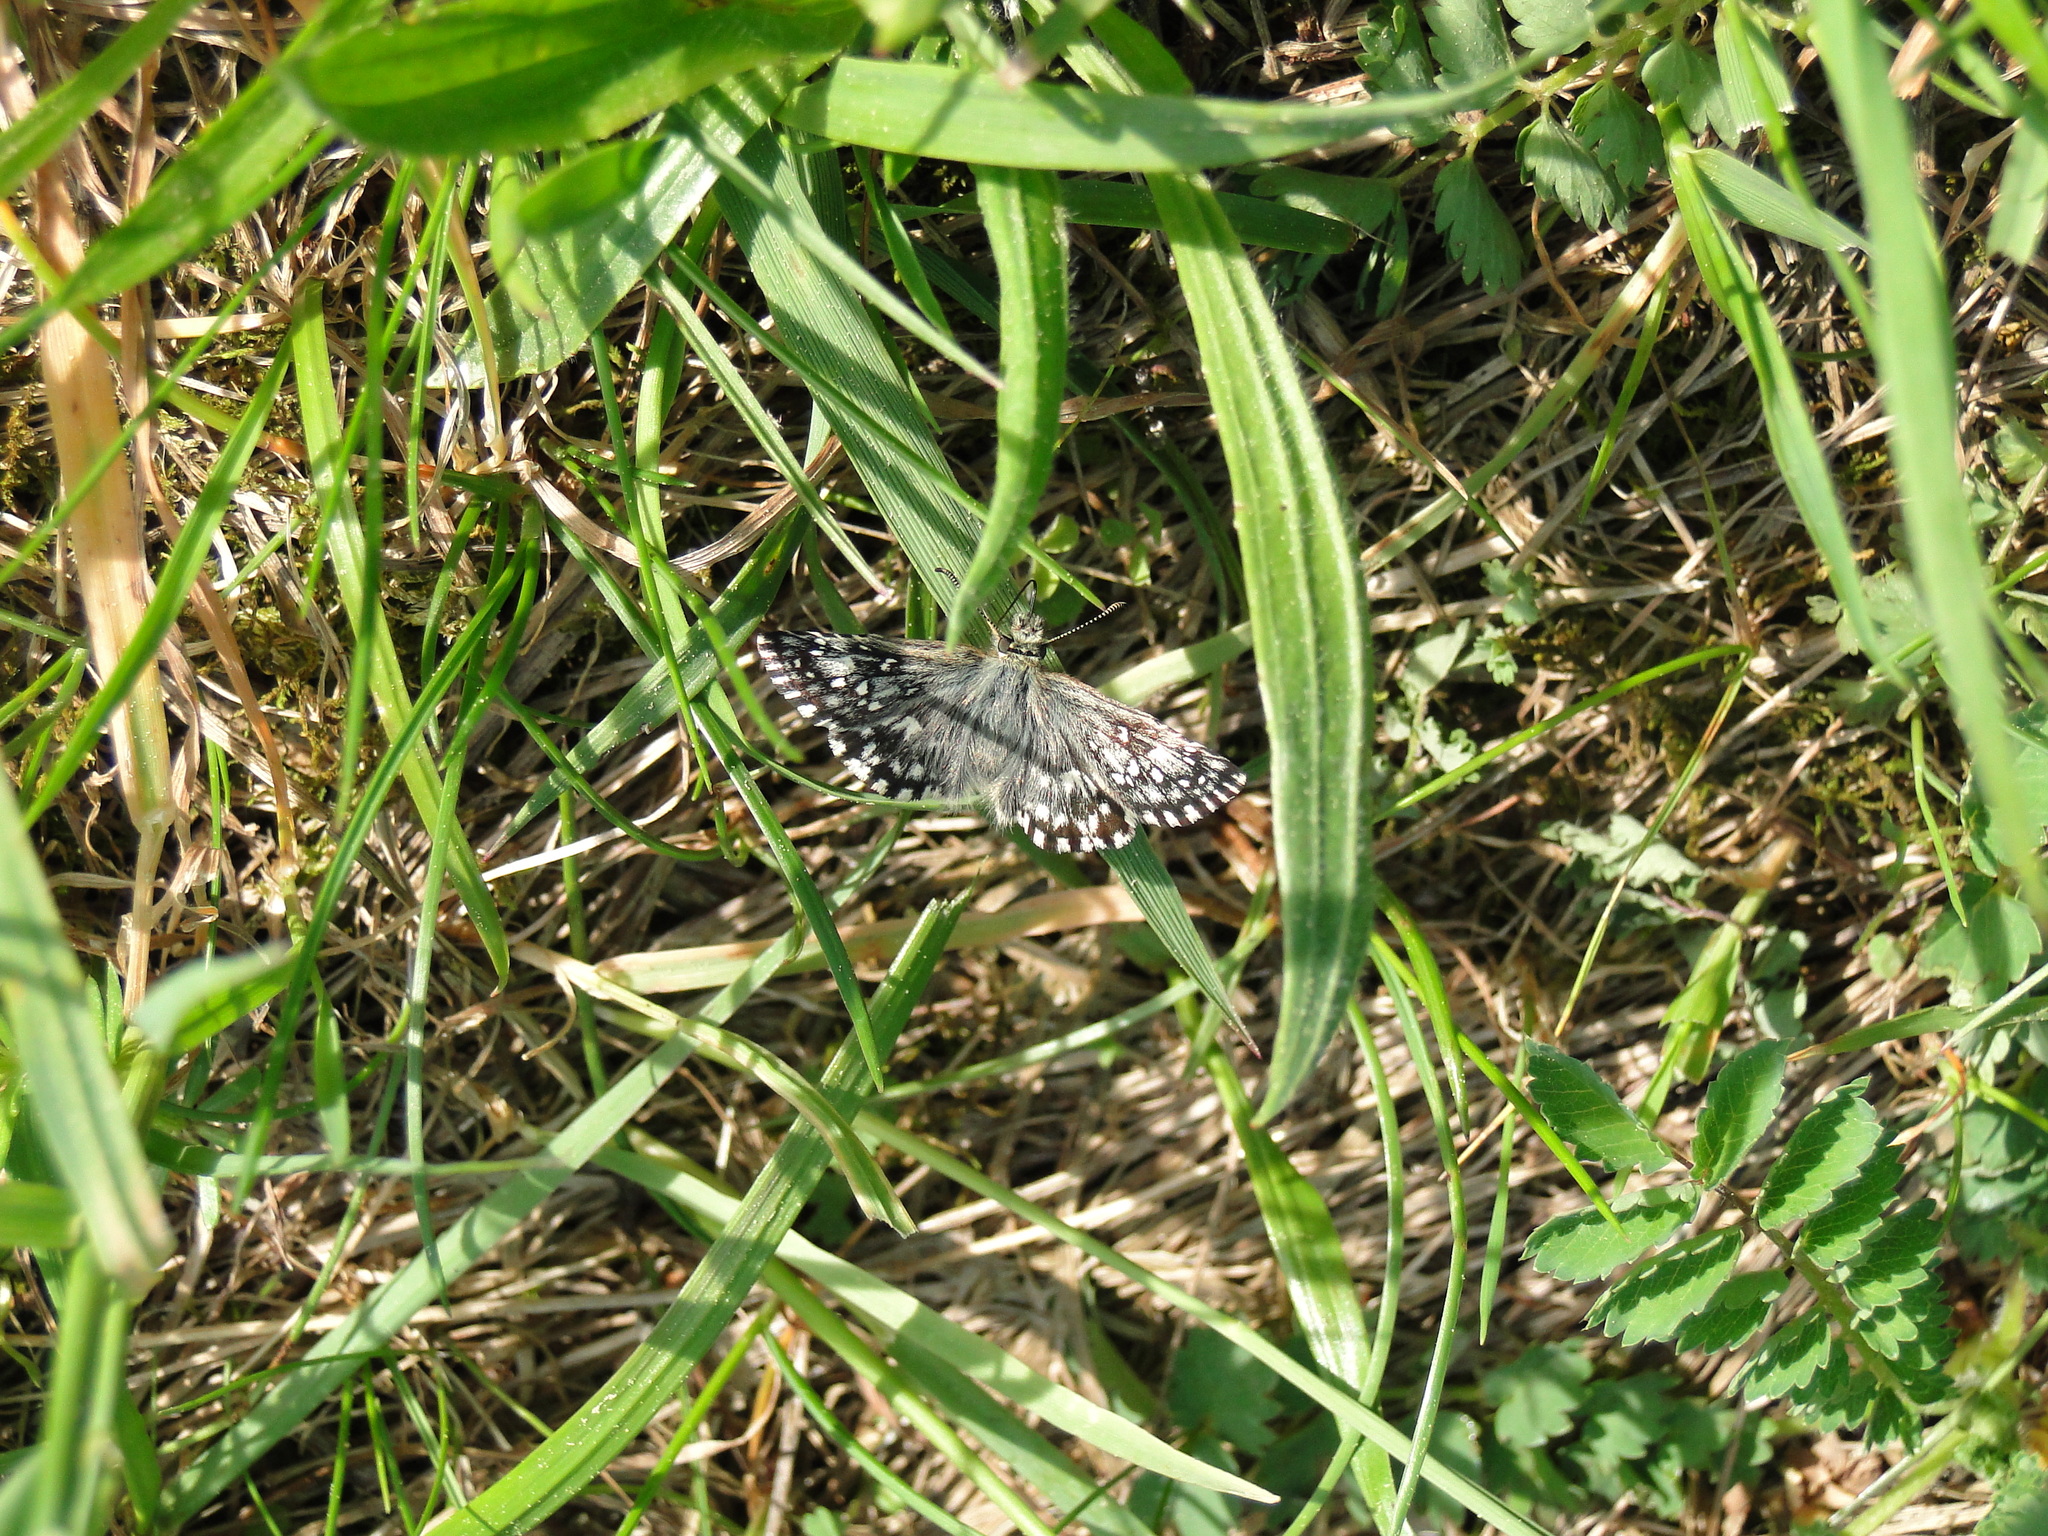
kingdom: Animalia
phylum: Arthropoda
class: Insecta
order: Lepidoptera
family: Hesperiidae
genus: Pyrgus
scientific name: Pyrgus malvae
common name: Grizzled skipper
